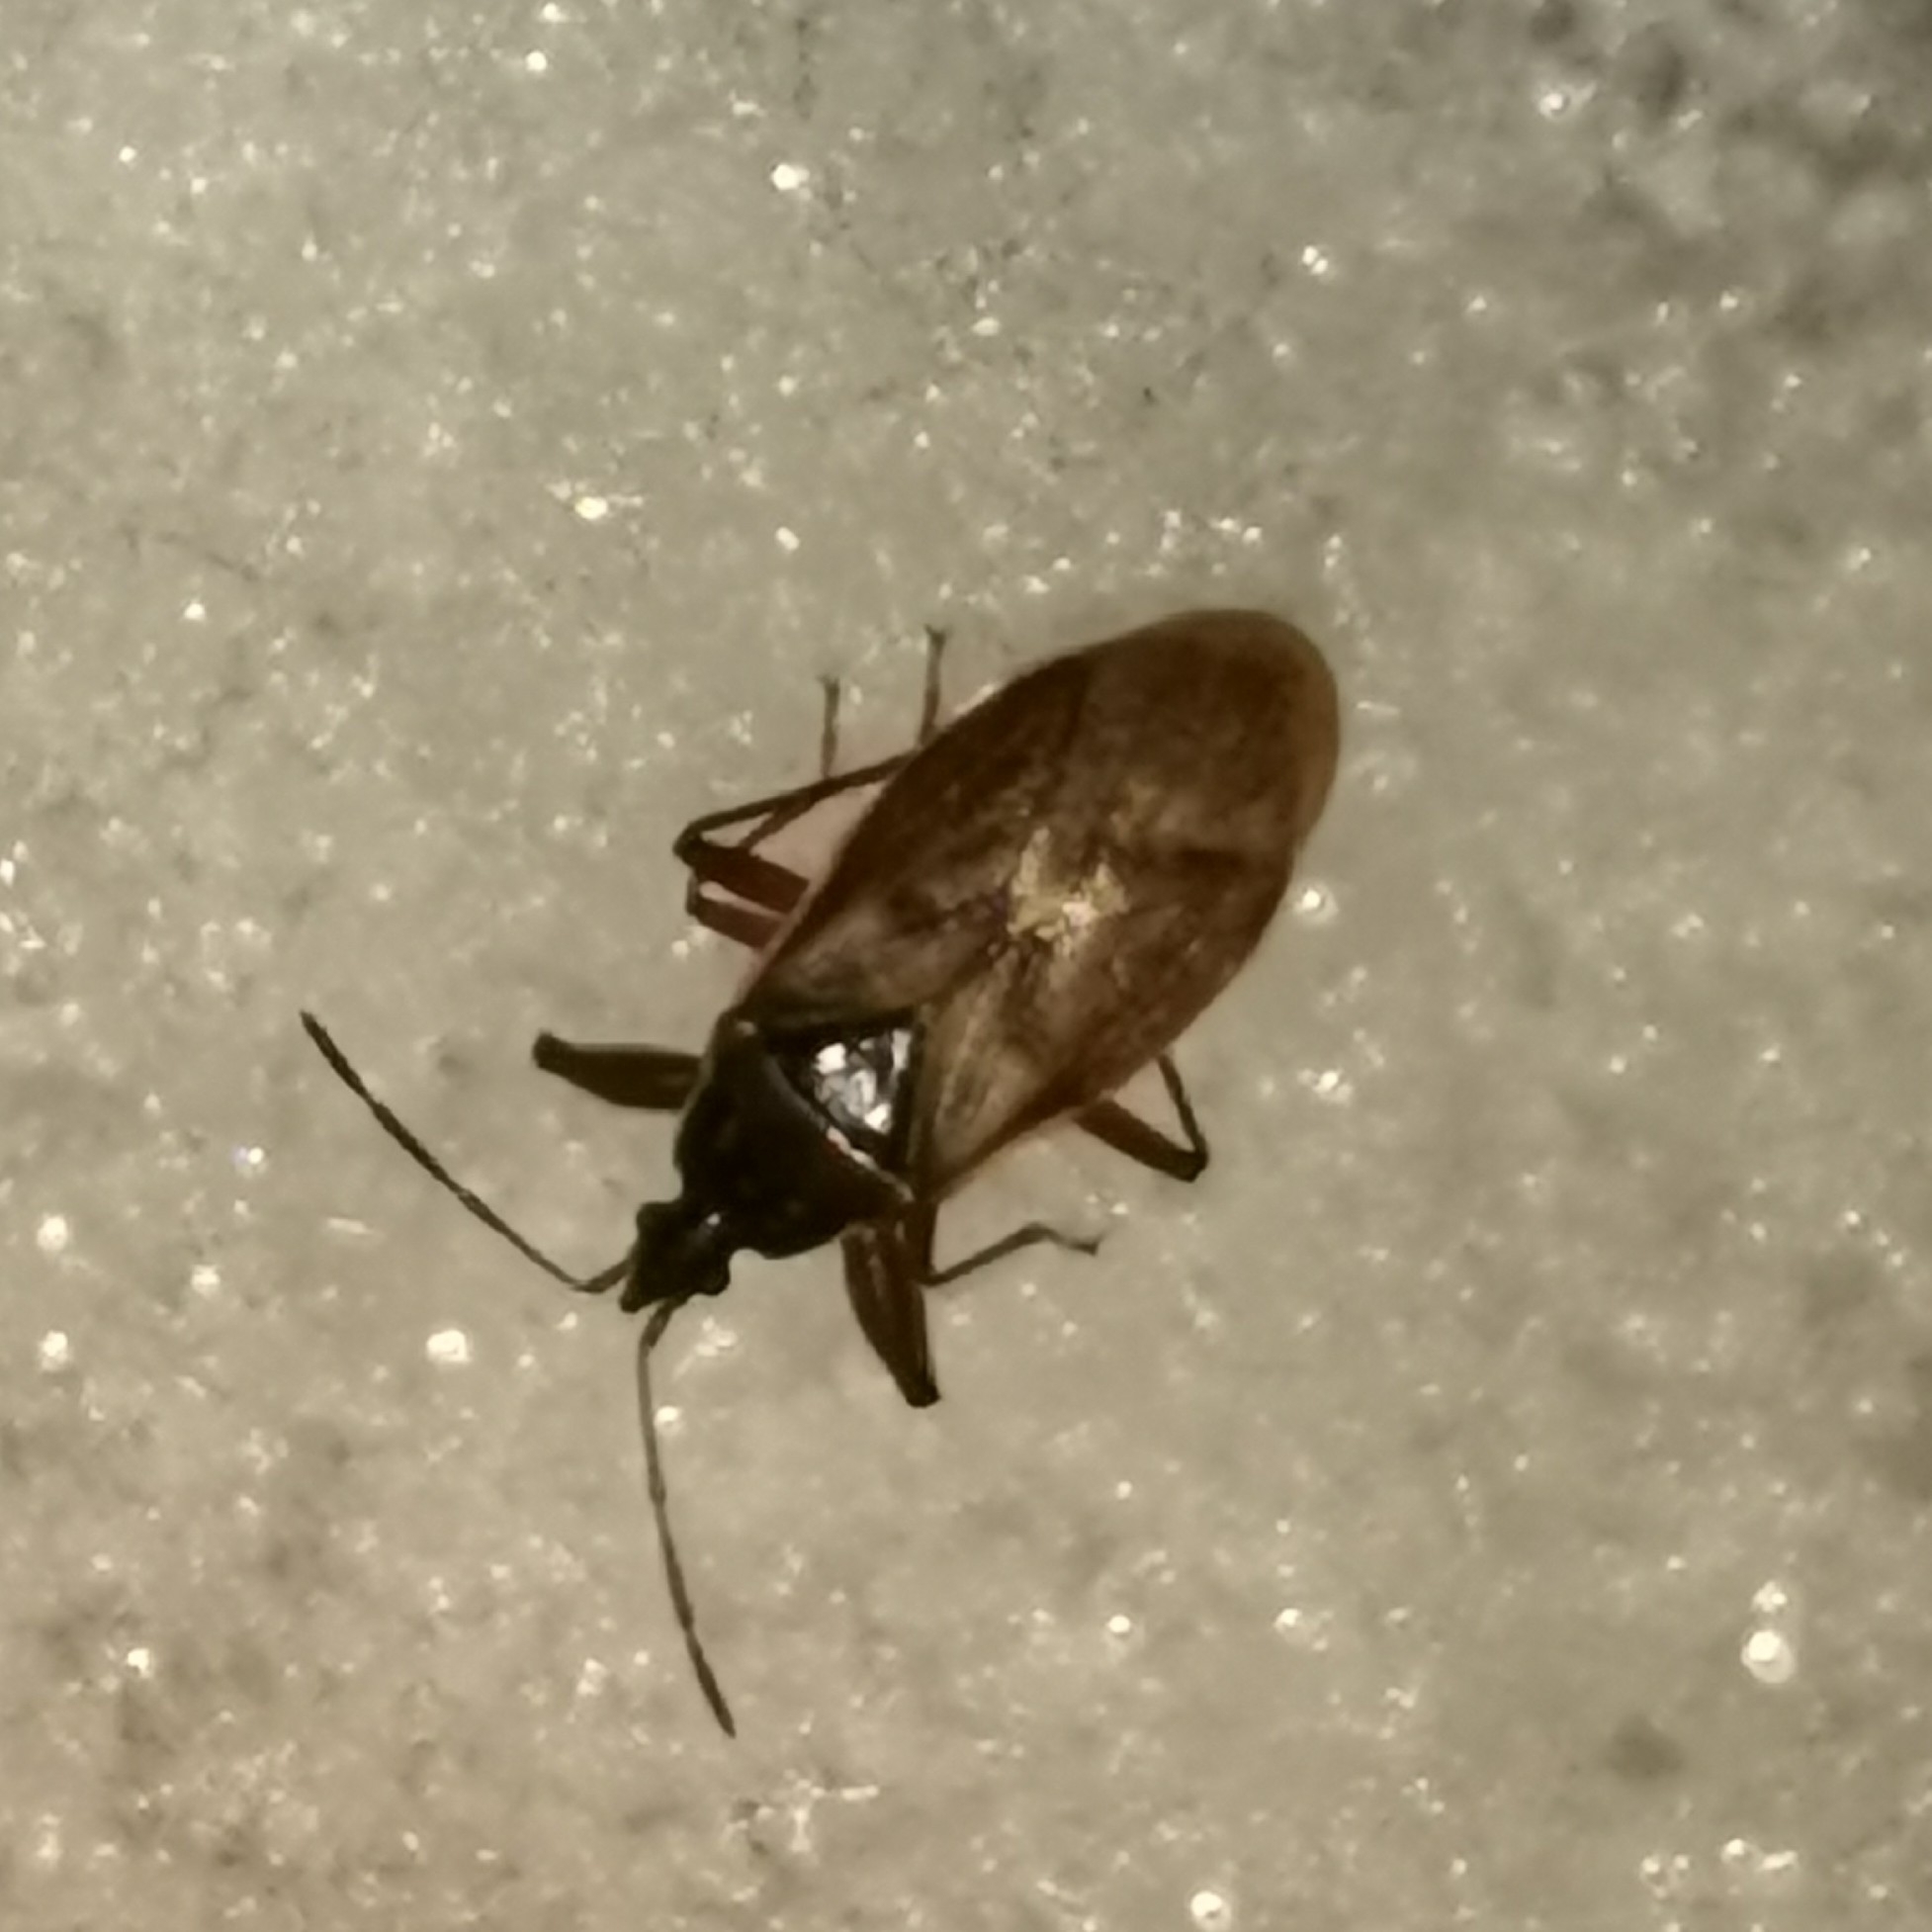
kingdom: Animalia
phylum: Arthropoda
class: Insecta
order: Hemiptera
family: Rhyparochromidae
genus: Gastrodes
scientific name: Gastrodes abietum
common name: Spruce cone bug
